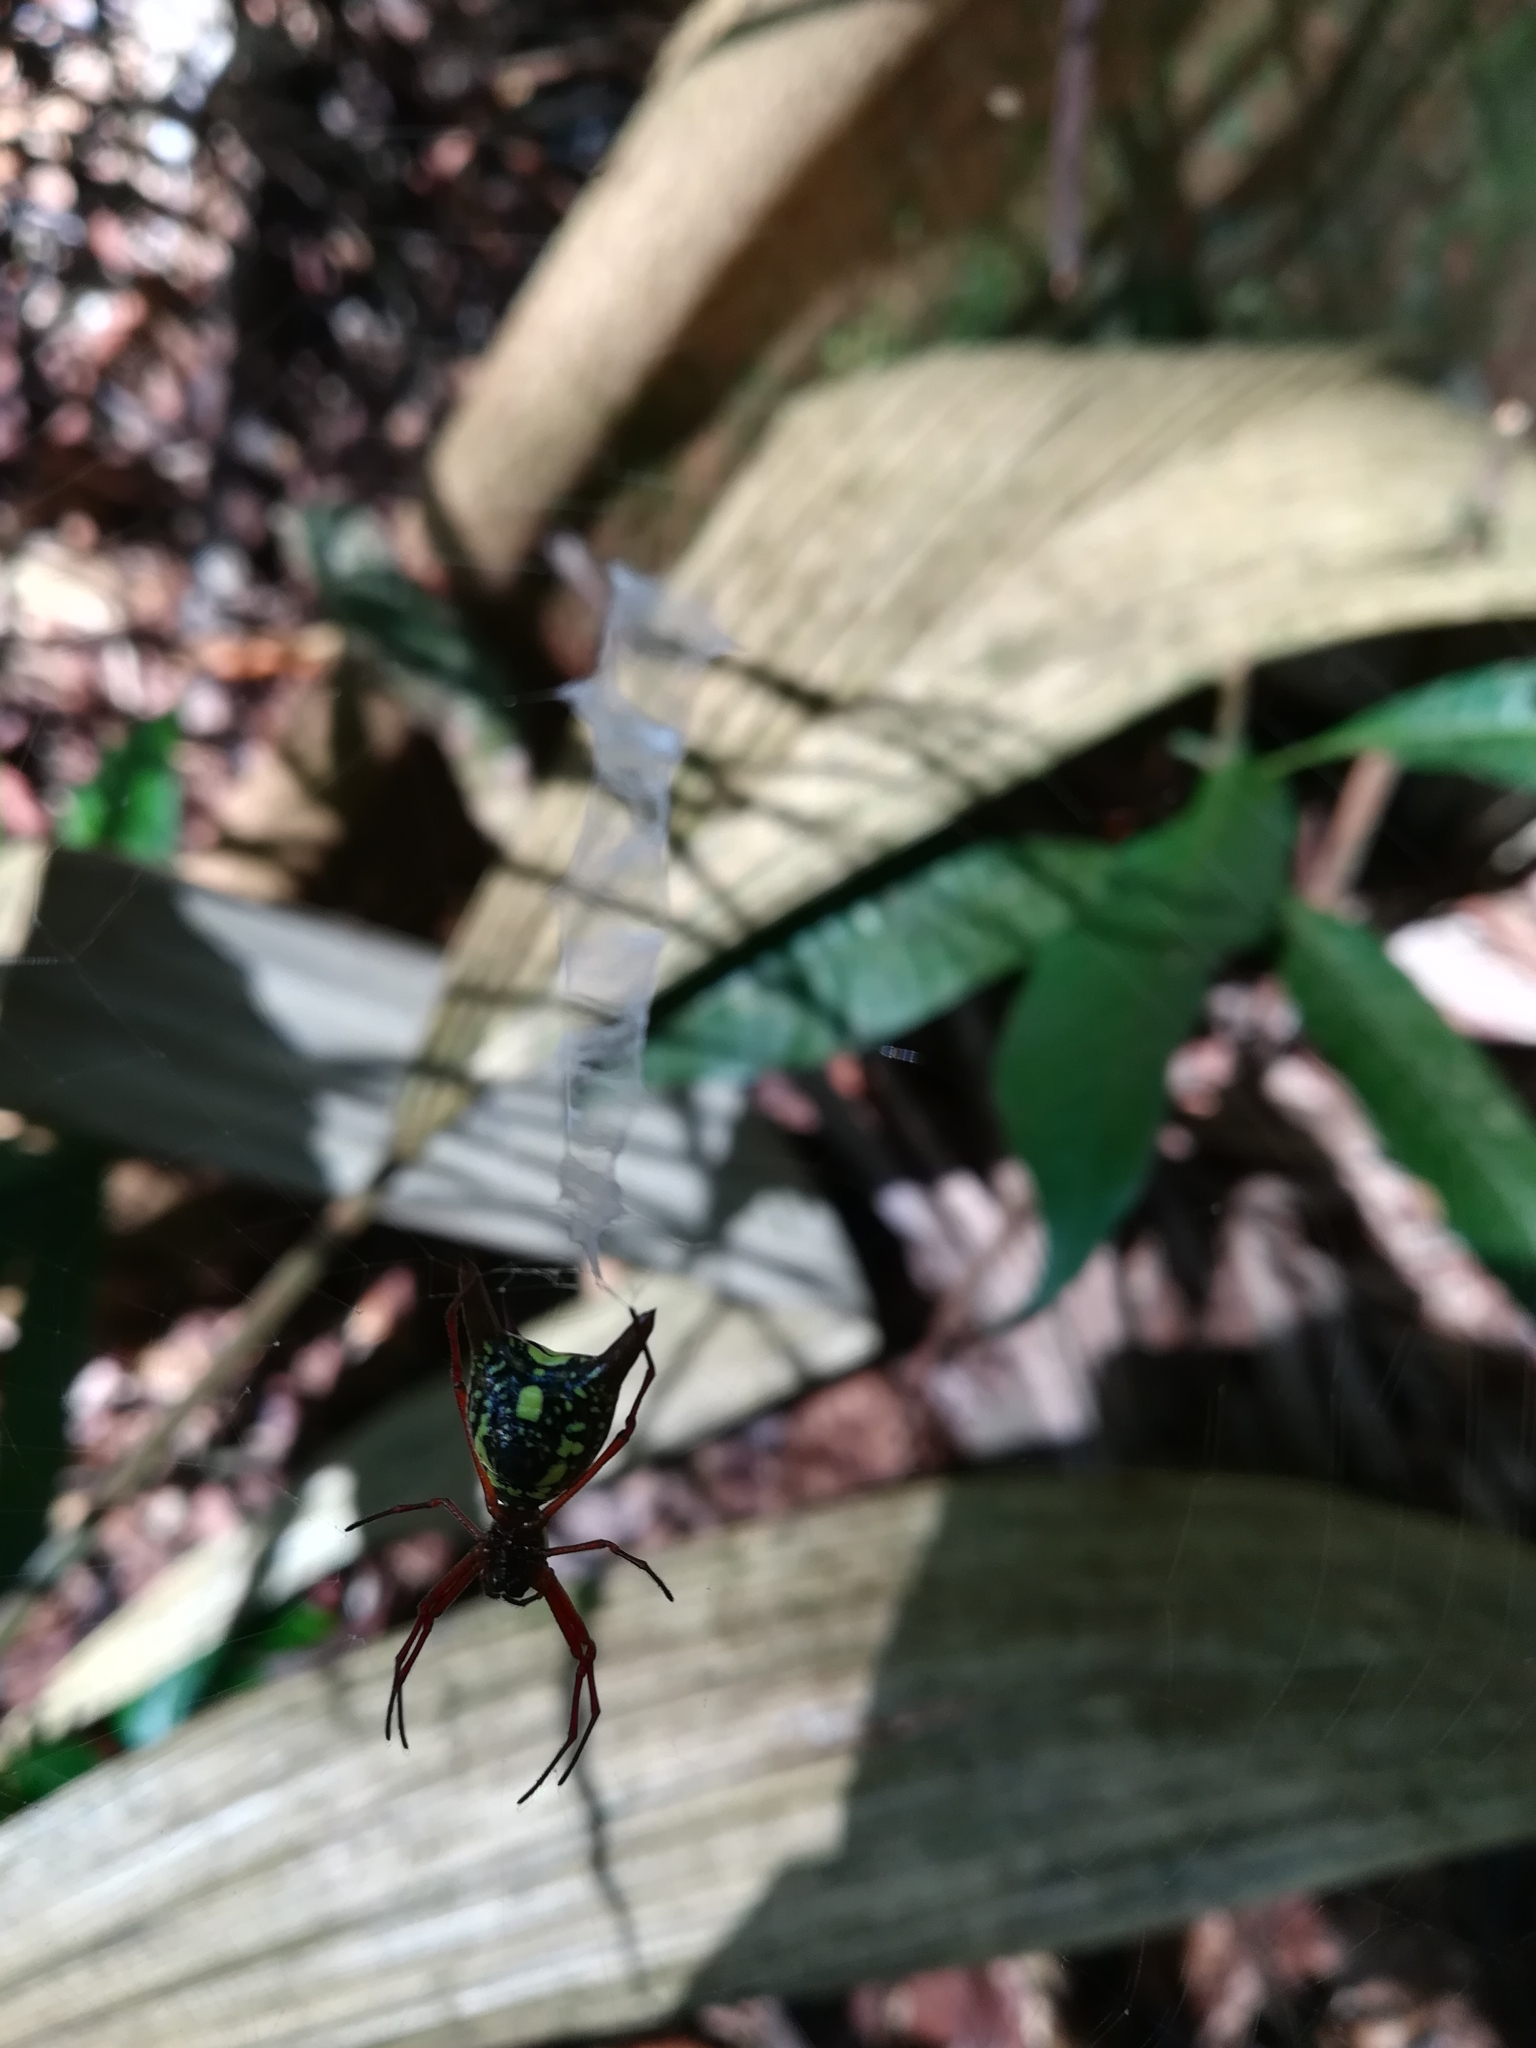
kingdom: Animalia
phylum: Arthropoda
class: Arachnida
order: Araneae
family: Araneidae
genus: Micrathena
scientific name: Micrathena
